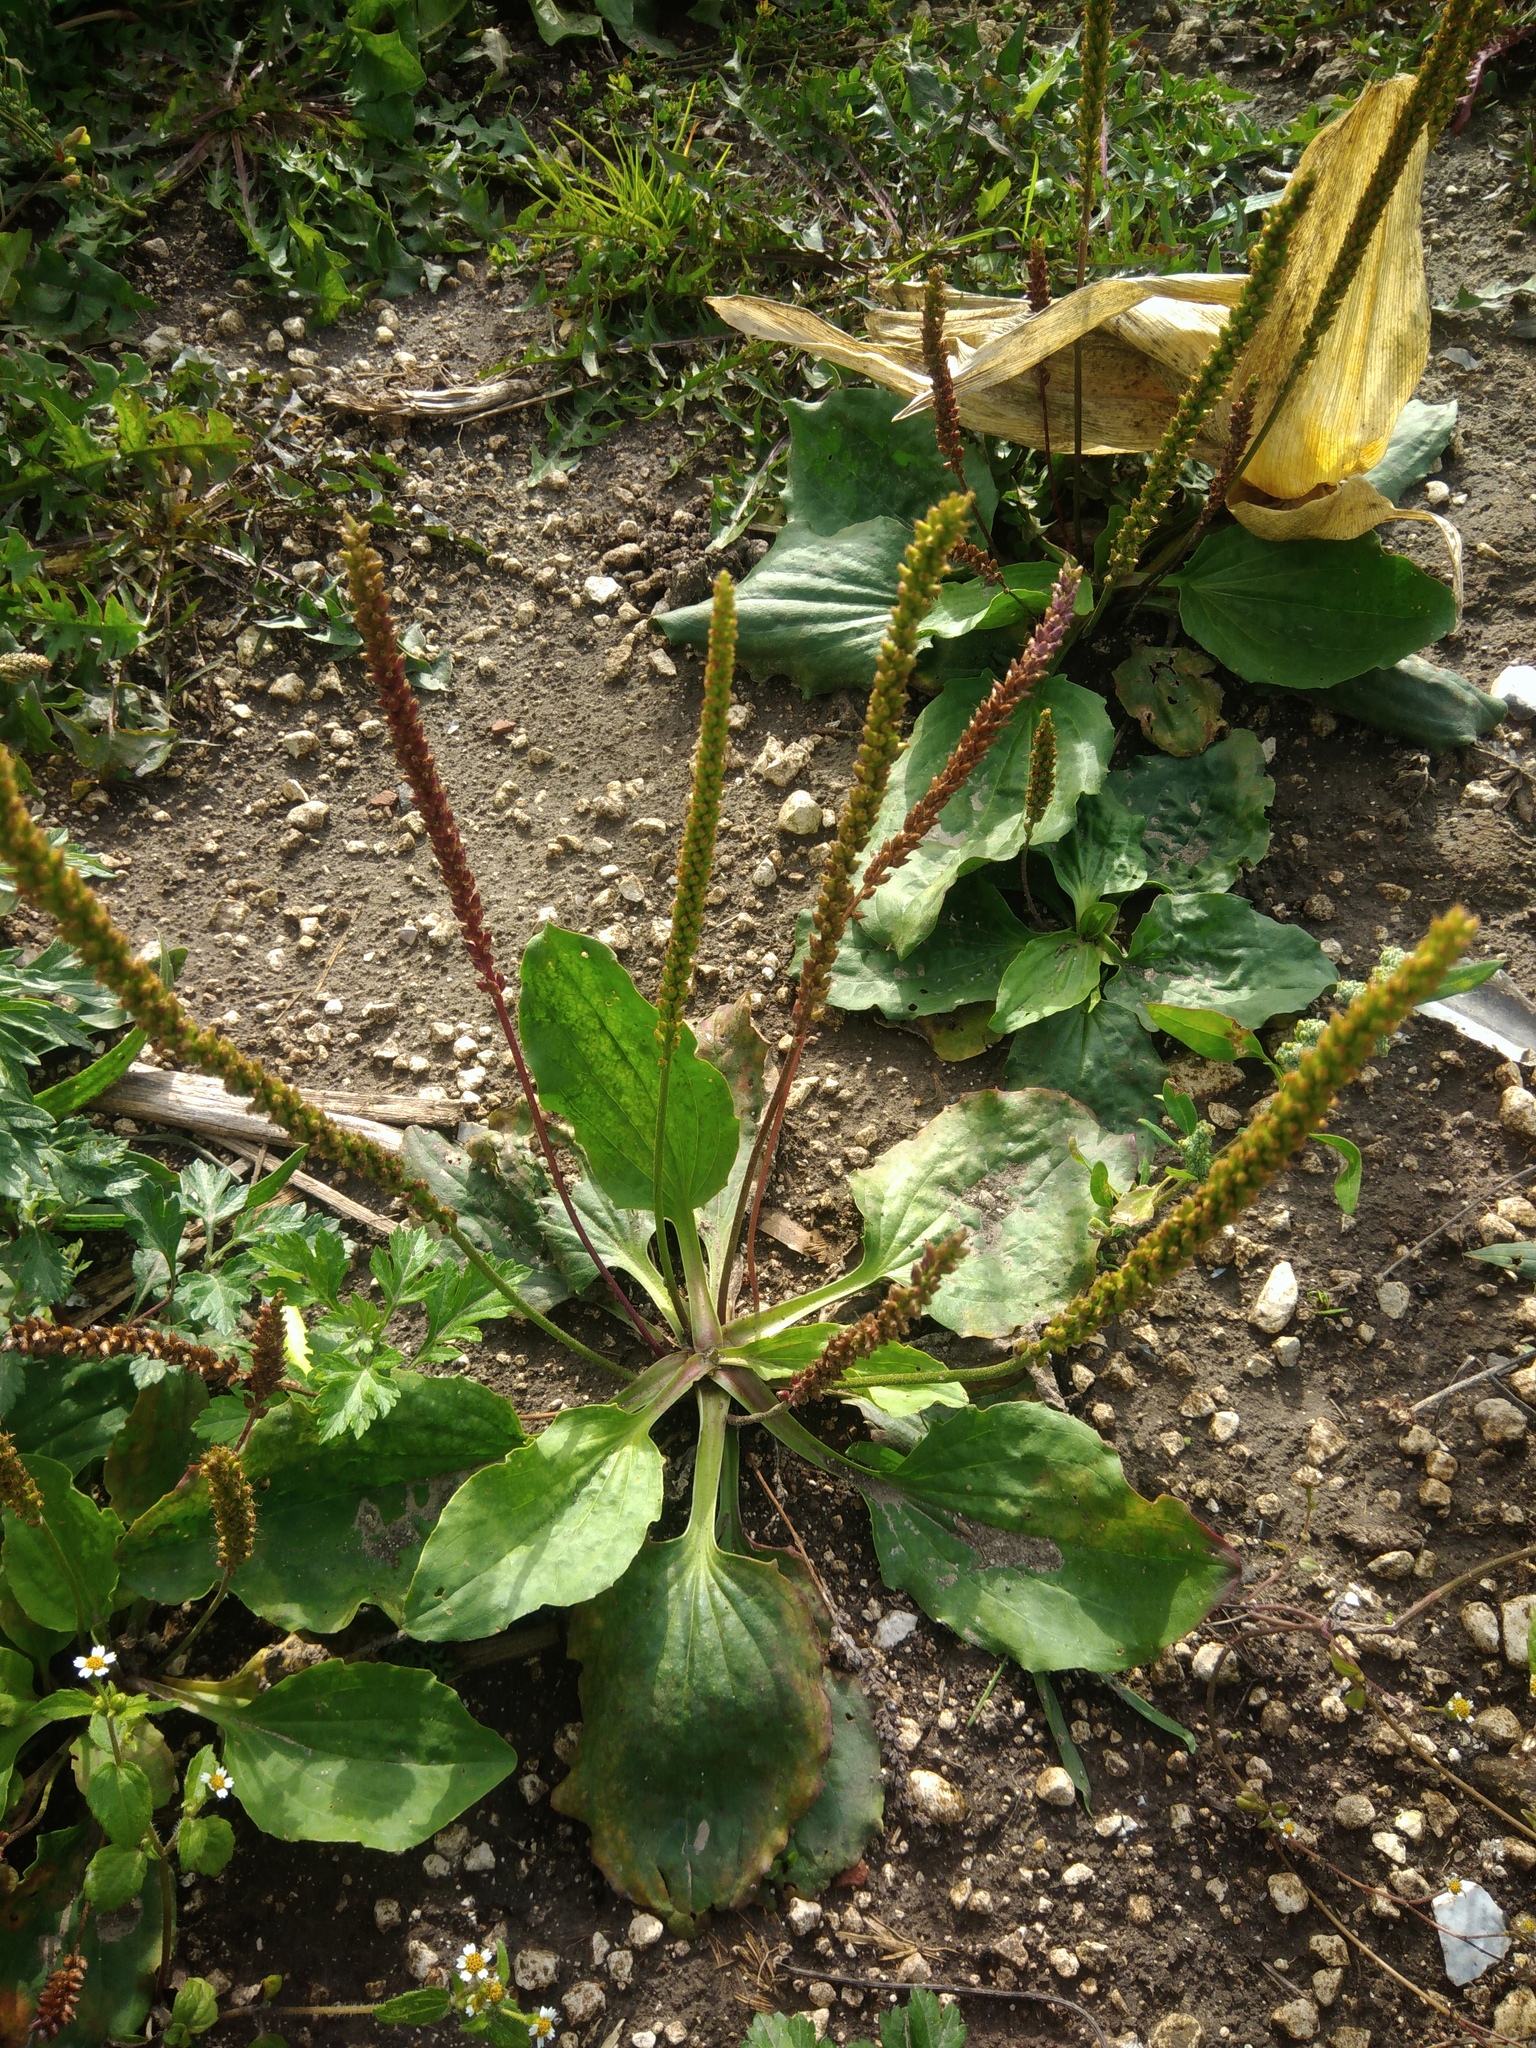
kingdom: Plantae
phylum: Tracheophyta
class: Magnoliopsida
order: Lamiales
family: Plantaginaceae
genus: Plantago
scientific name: Plantago major
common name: Common plantain
